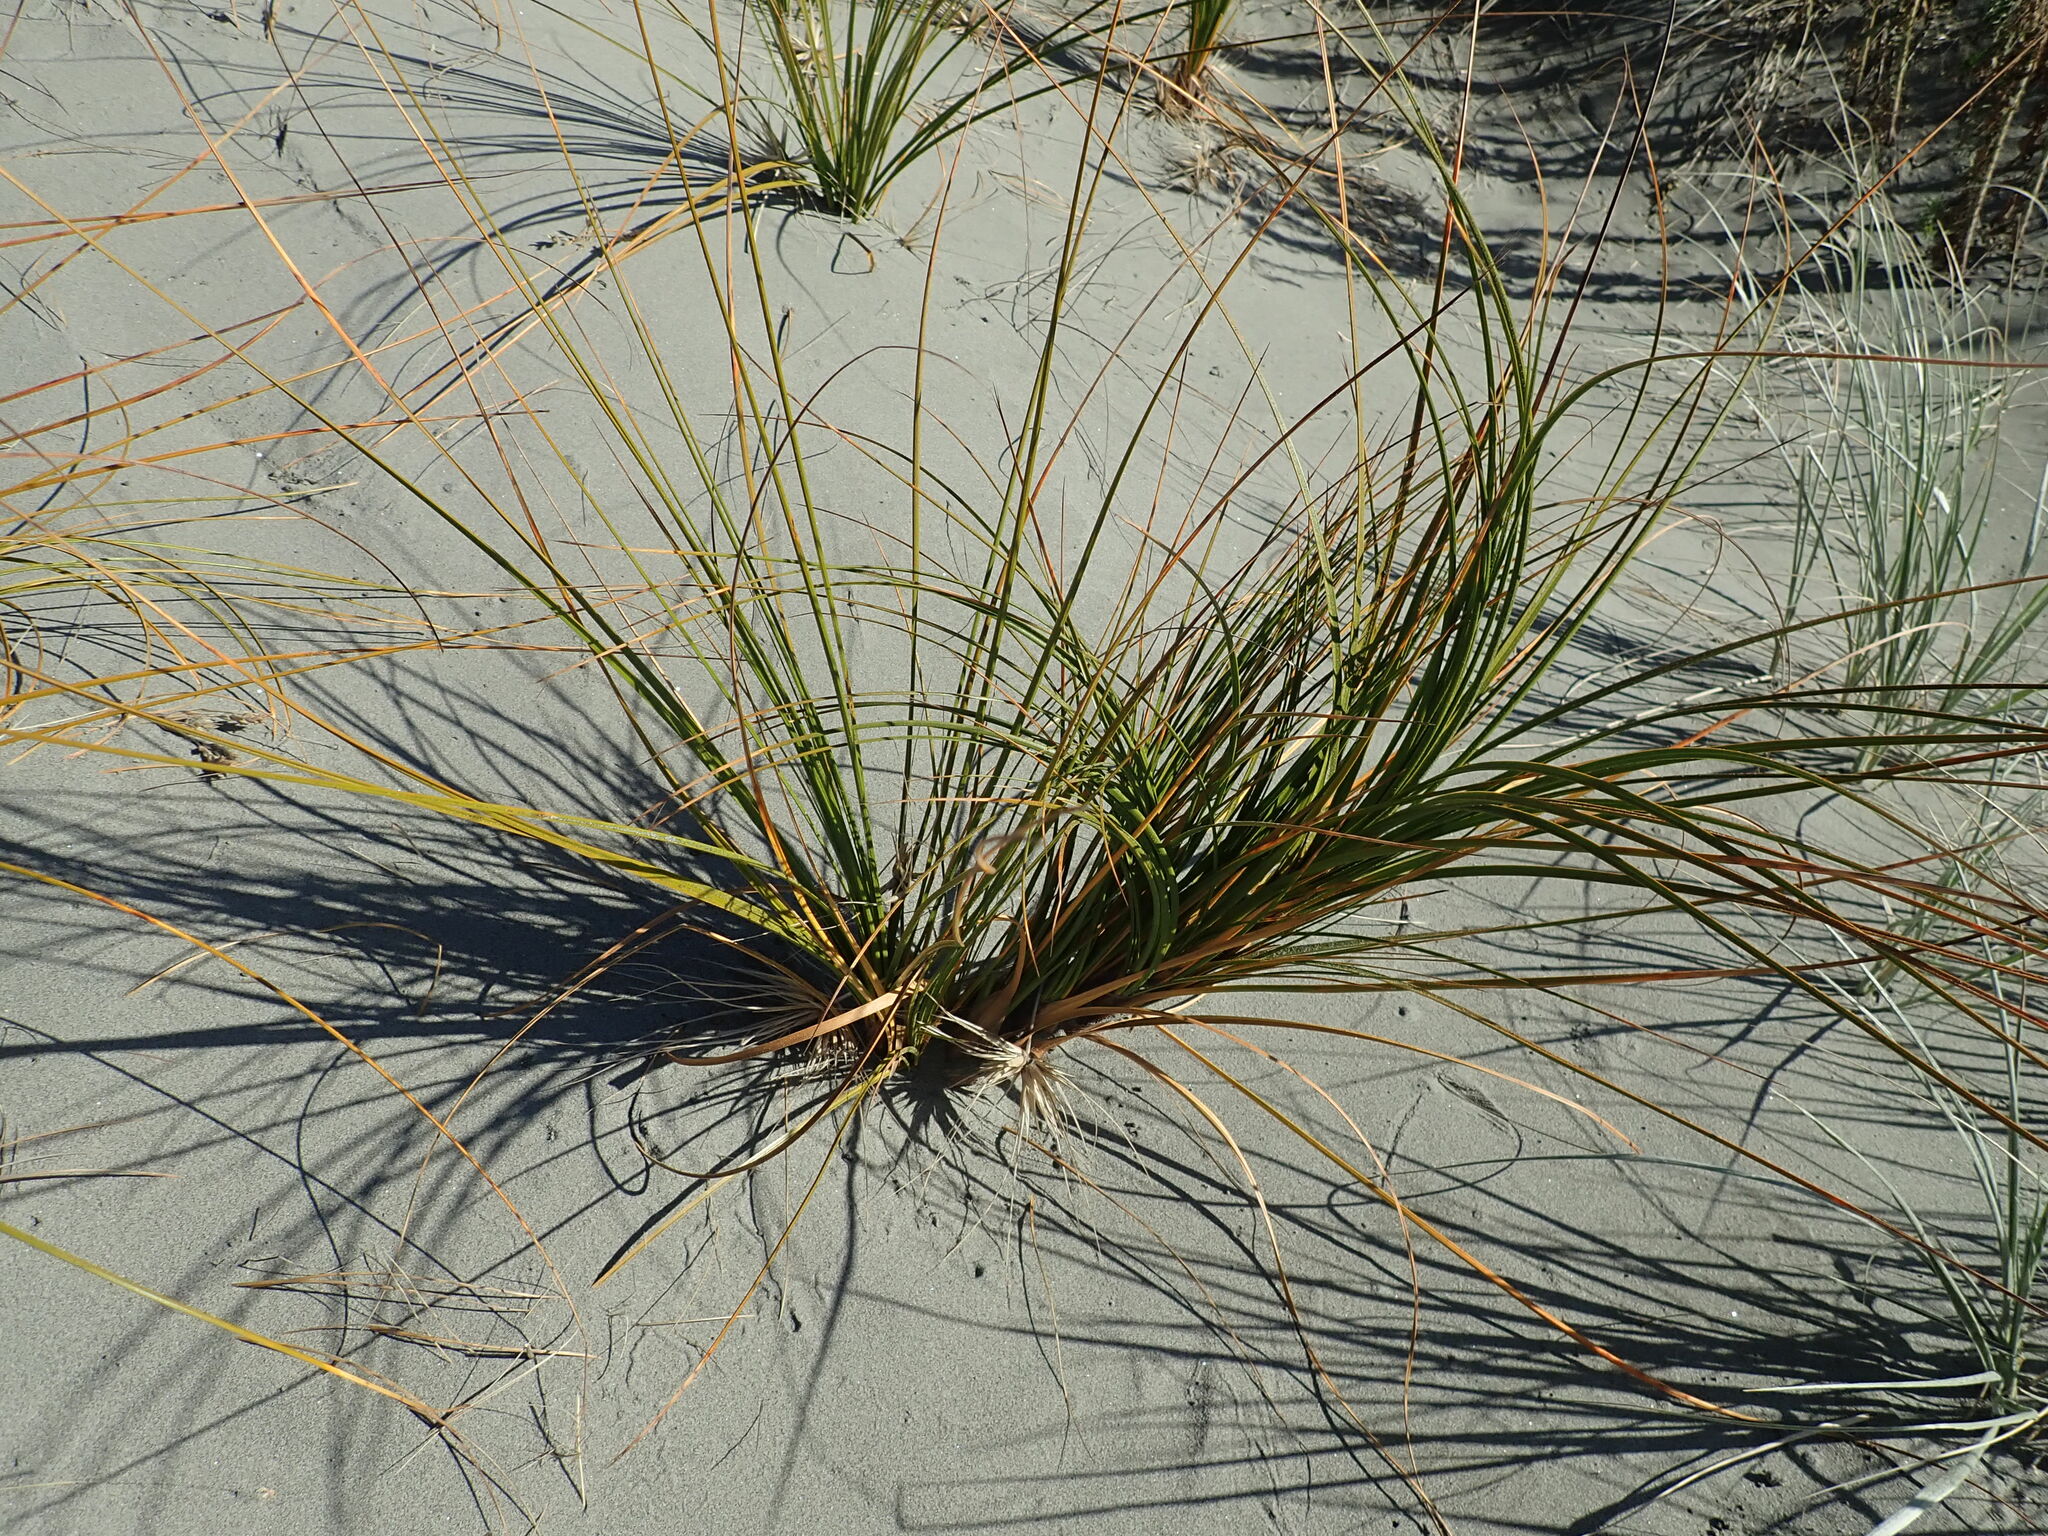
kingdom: Plantae
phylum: Tracheophyta
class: Liliopsida
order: Poales
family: Cyperaceae
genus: Ficinia
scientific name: Ficinia spiralis
